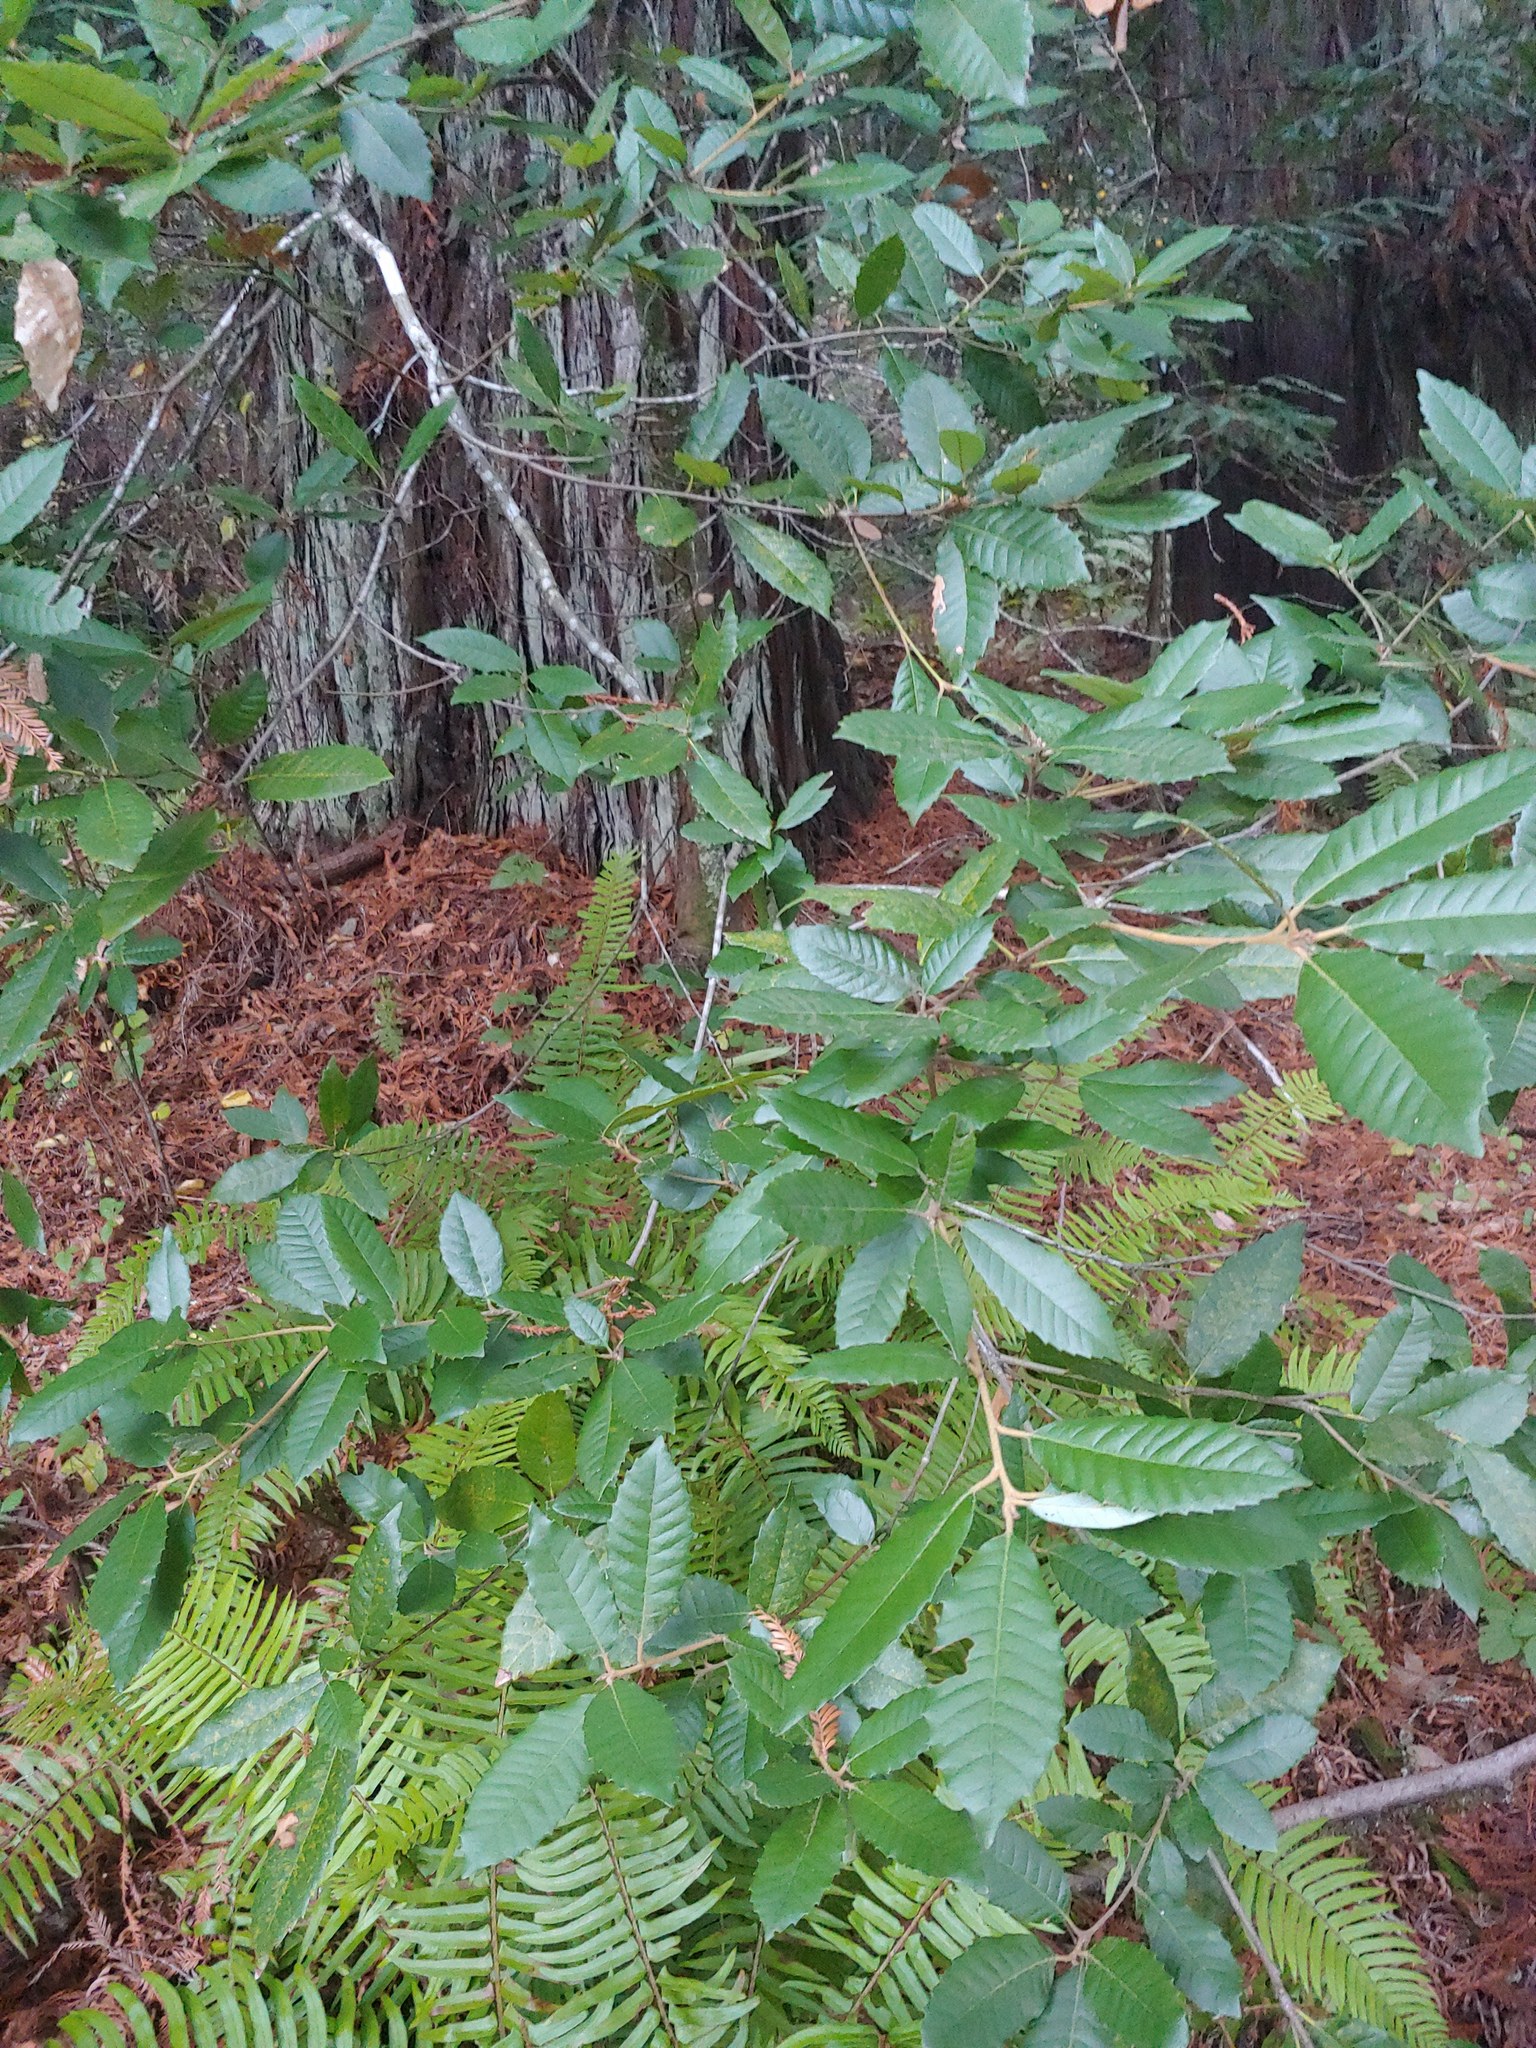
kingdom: Plantae
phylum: Tracheophyta
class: Magnoliopsida
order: Fagales
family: Fagaceae
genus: Notholithocarpus
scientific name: Notholithocarpus densiflorus
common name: Tan bark oak
